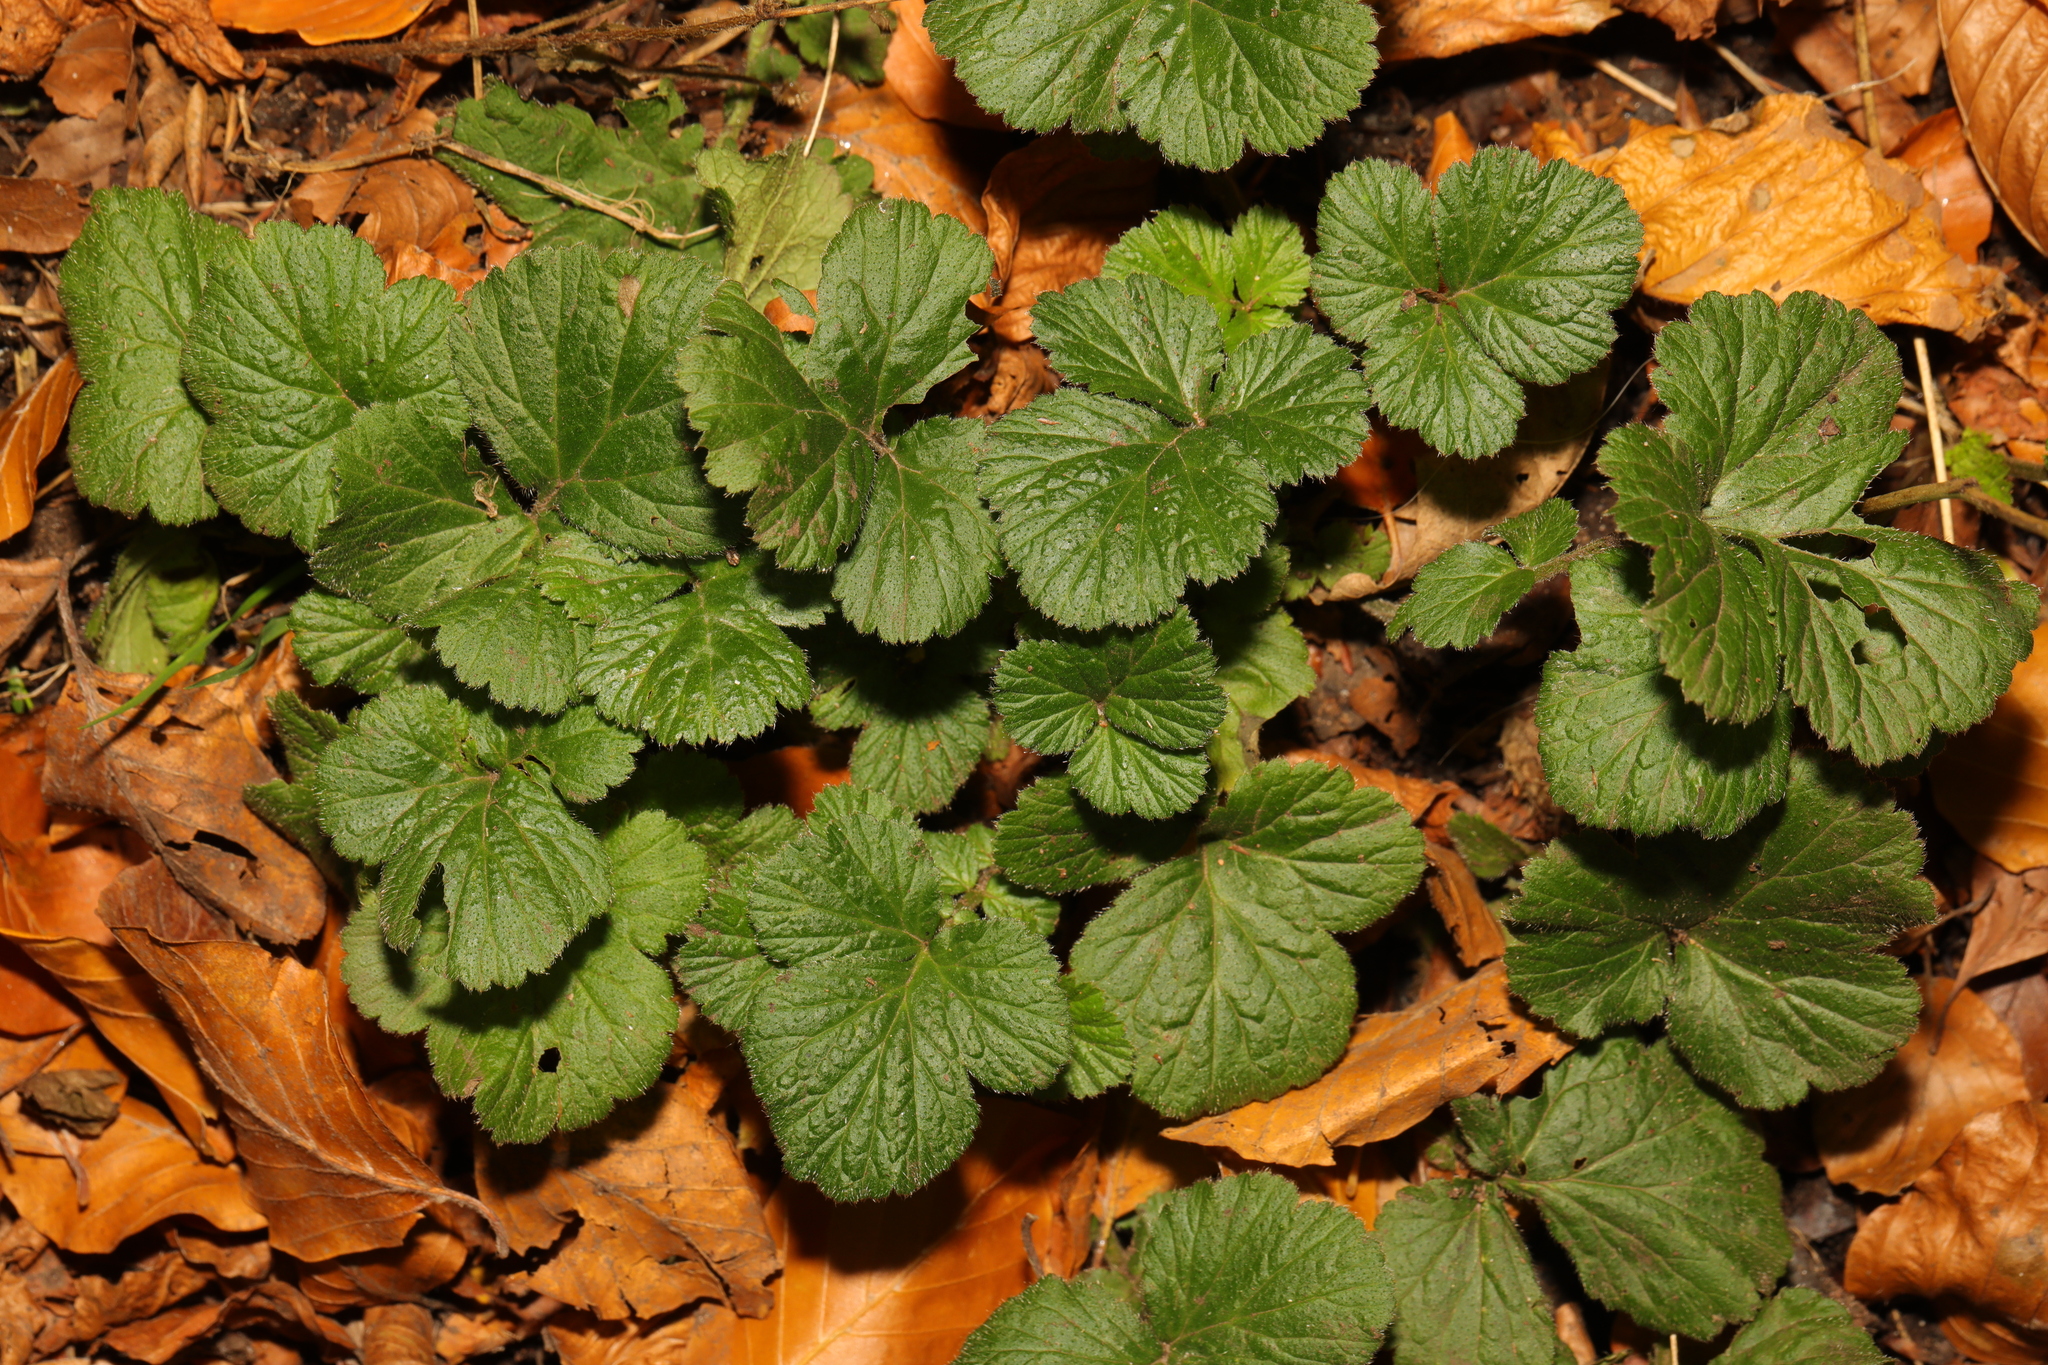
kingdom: Plantae
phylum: Tracheophyta
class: Magnoliopsida
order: Rosales
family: Rosaceae
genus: Geum
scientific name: Geum urbanum
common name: Wood avens
